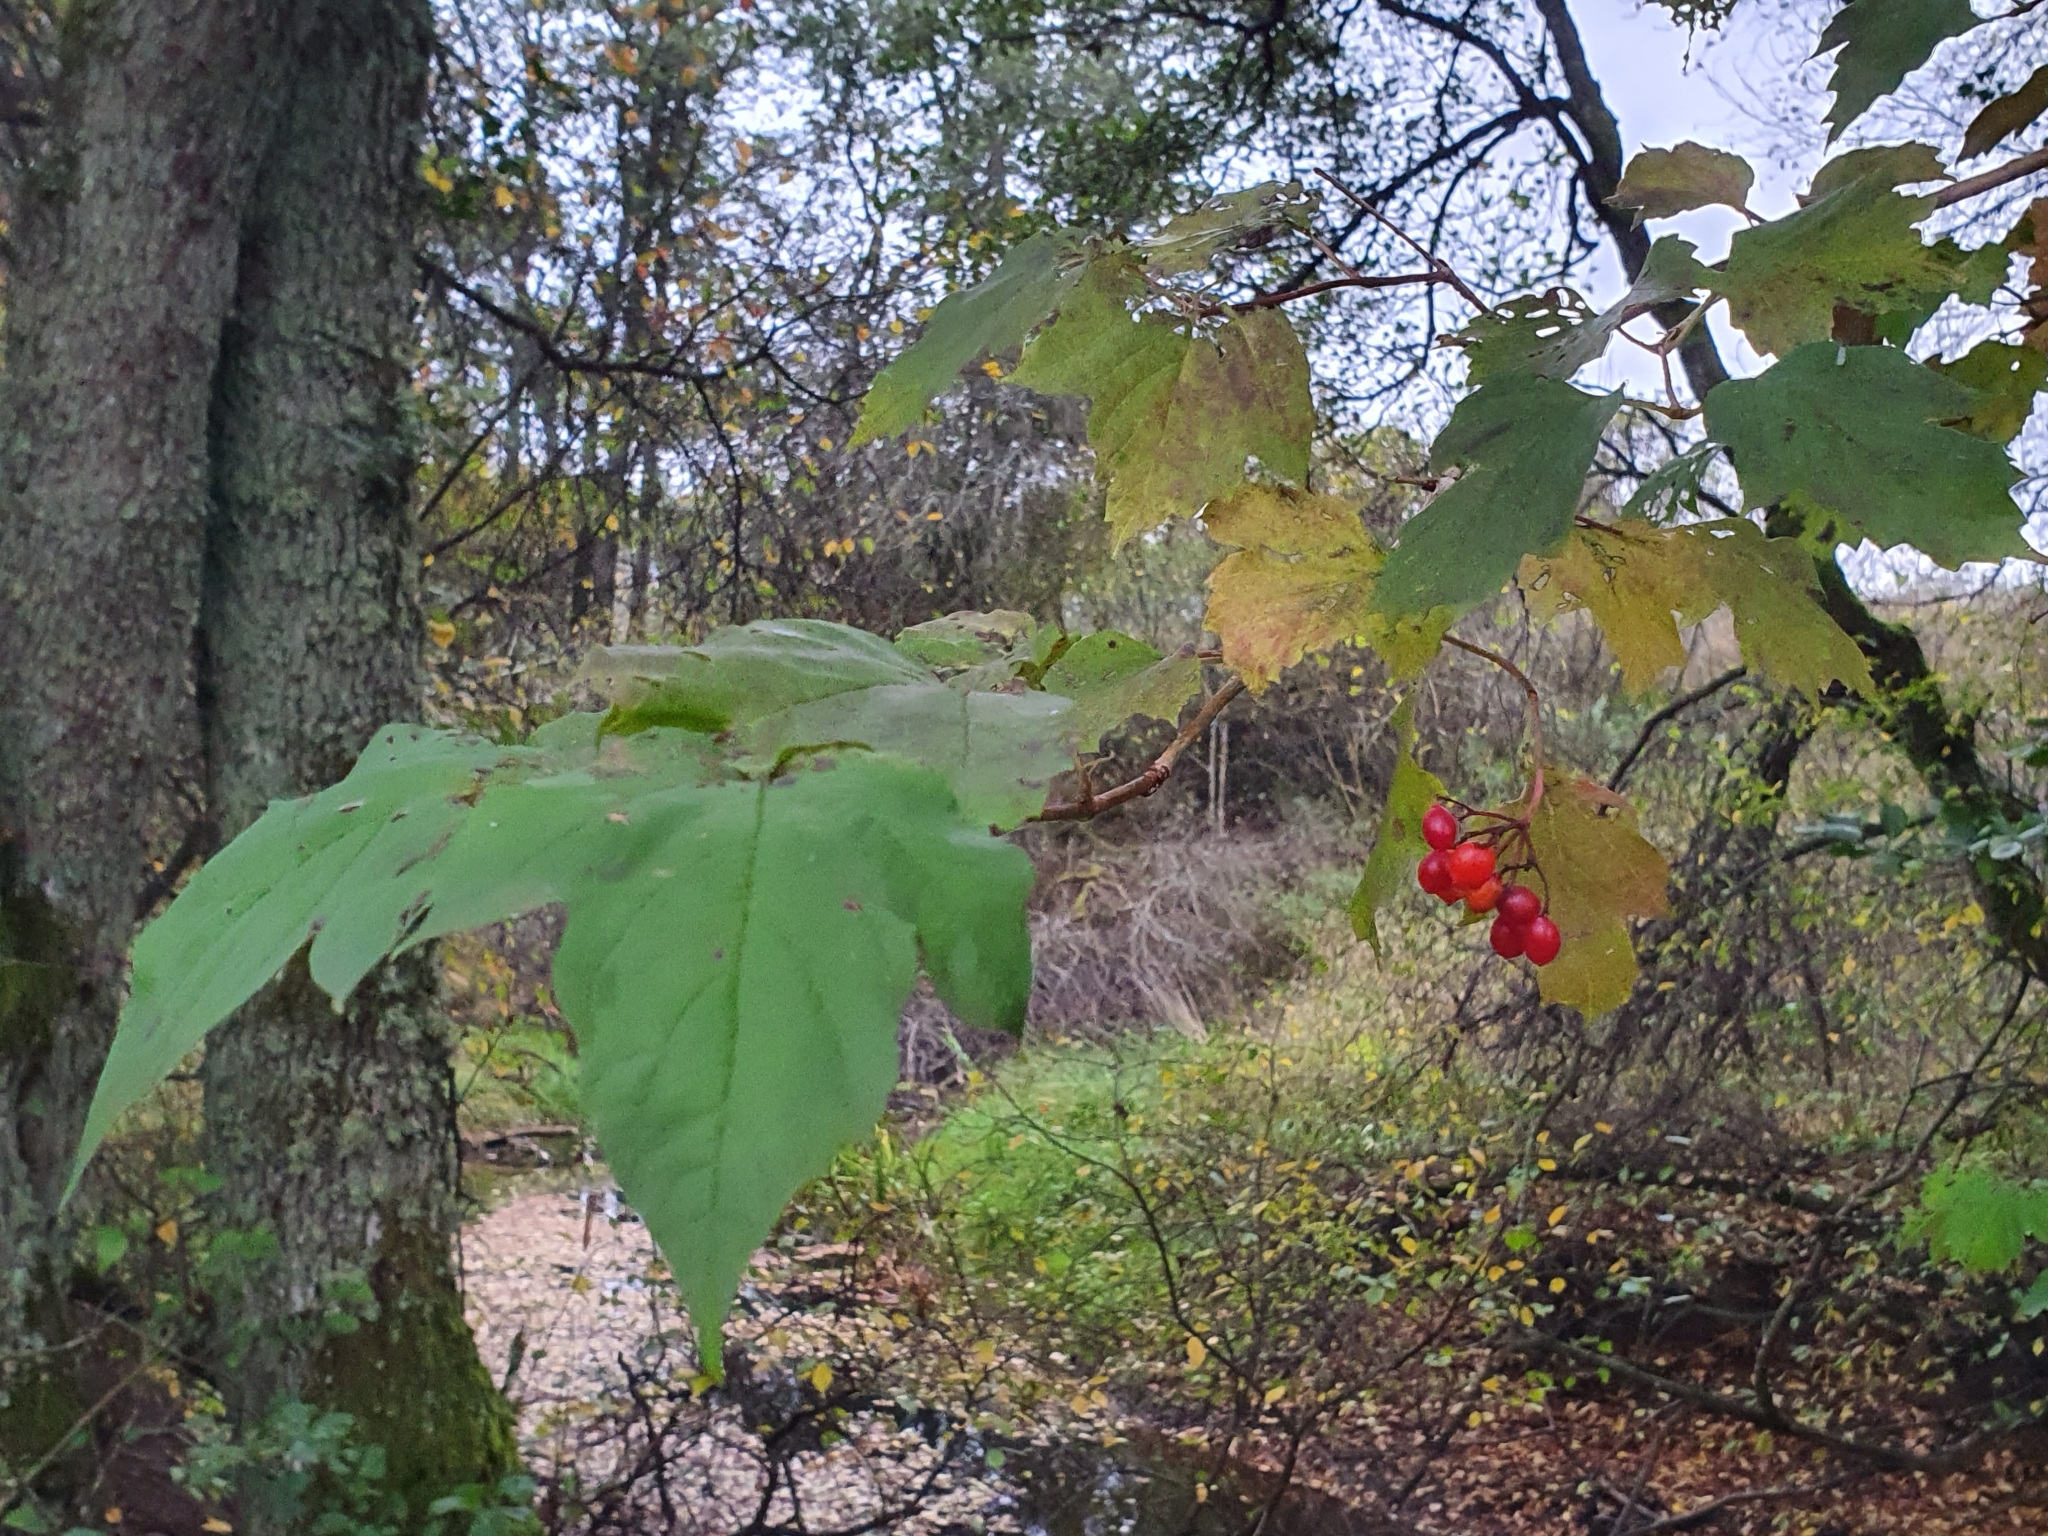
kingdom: Plantae
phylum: Tracheophyta
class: Magnoliopsida
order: Dipsacales
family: Viburnaceae
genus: Viburnum
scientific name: Viburnum opulus
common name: Guelder-rose
